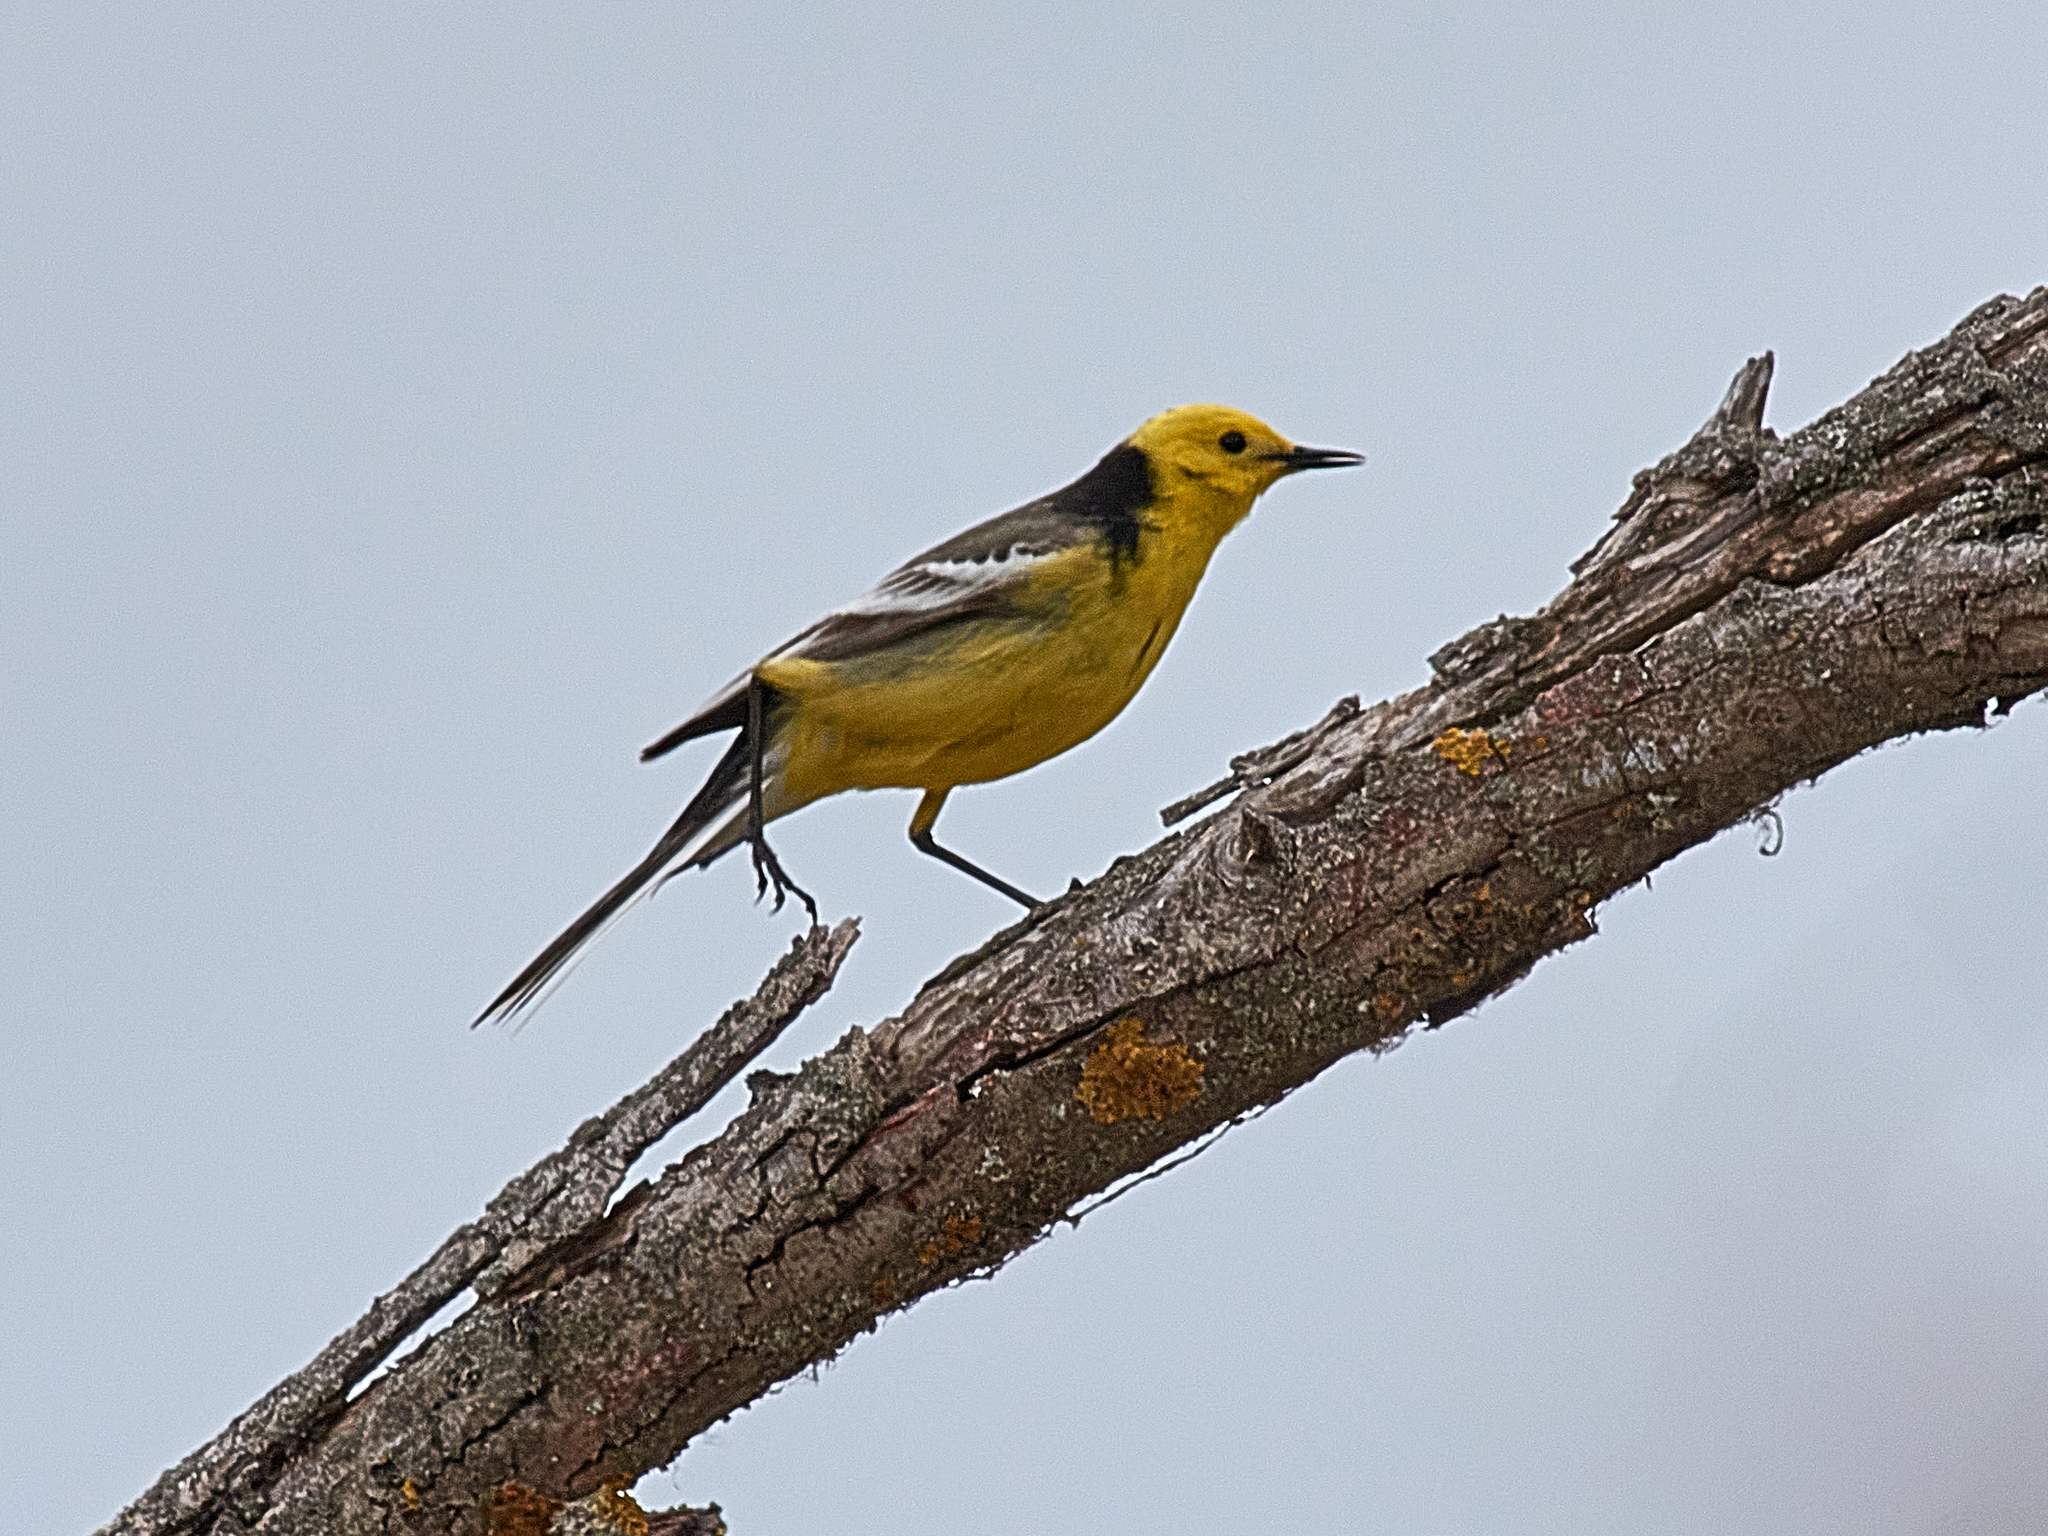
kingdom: Animalia
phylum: Chordata
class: Aves
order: Passeriformes
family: Motacillidae
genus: Motacilla
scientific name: Motacilla citreola
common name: Citrine wagtail
